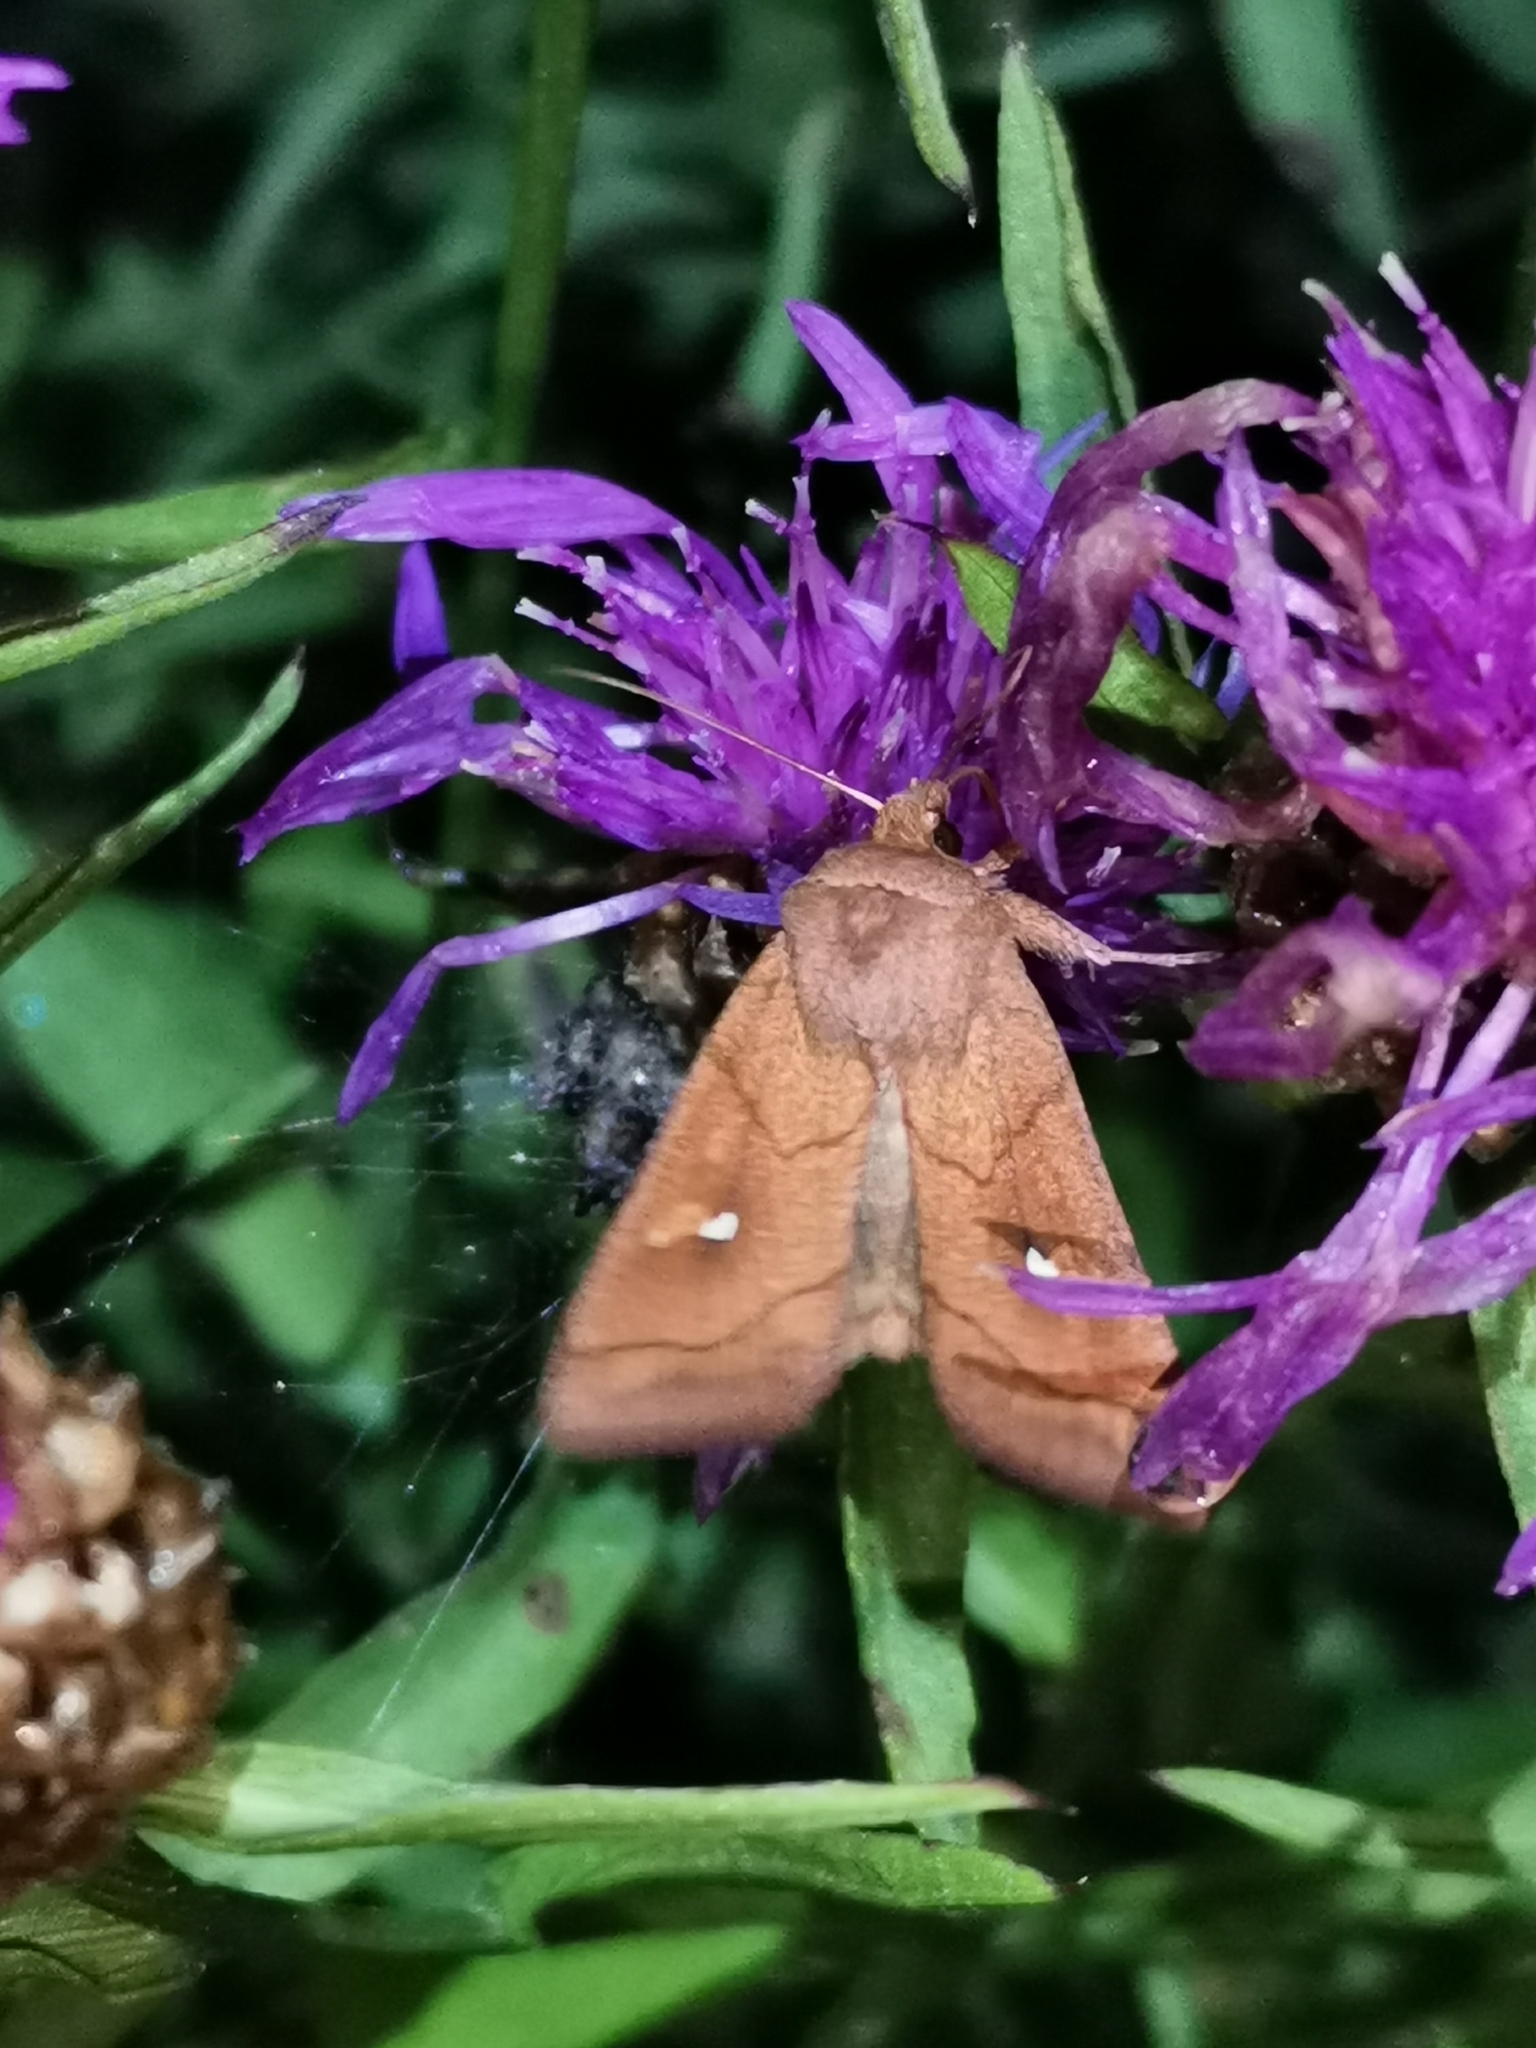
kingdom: Animalia
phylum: Arthropoda
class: Insecta
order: Lepidoptera
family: Noctuidae
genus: Mythimna
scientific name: Mythimna conigera
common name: Brown-line bright-eye
